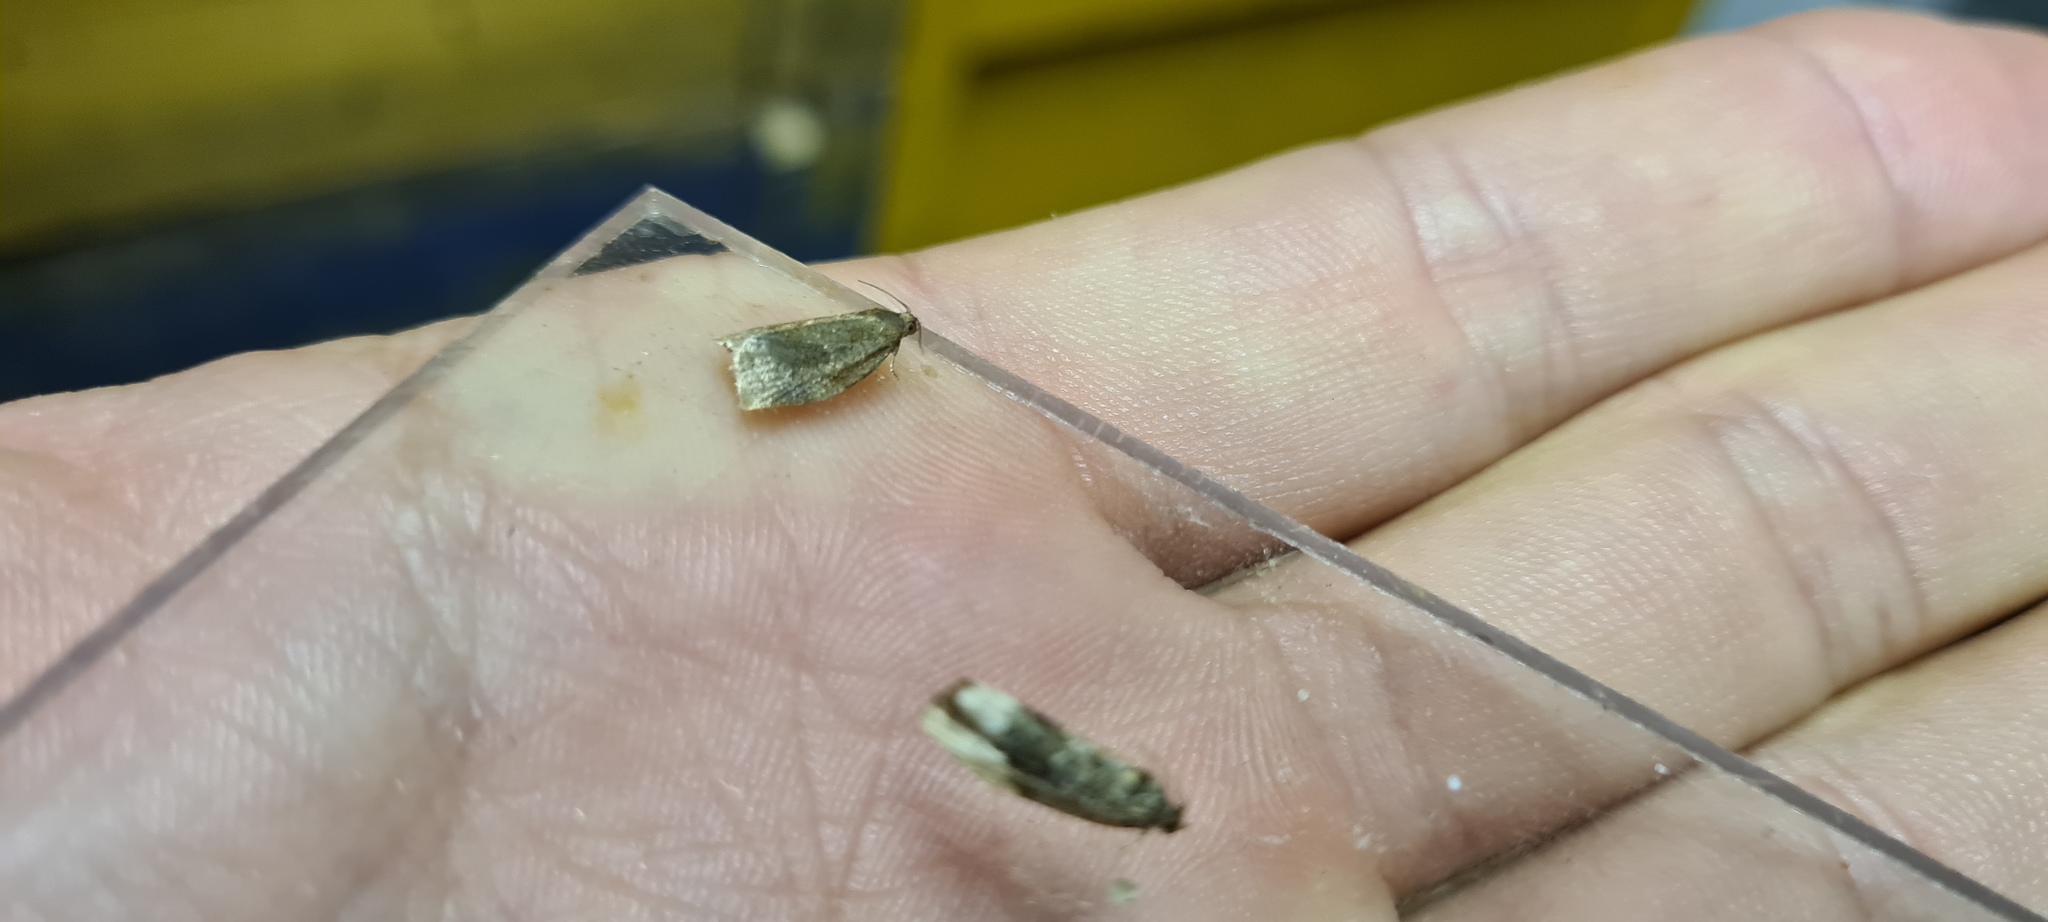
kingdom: Animalia
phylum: Arthropoda
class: Insecta
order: Lepidoptera
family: Tortricidae
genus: Archips
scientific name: Archips rosana
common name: Rose tortrix
